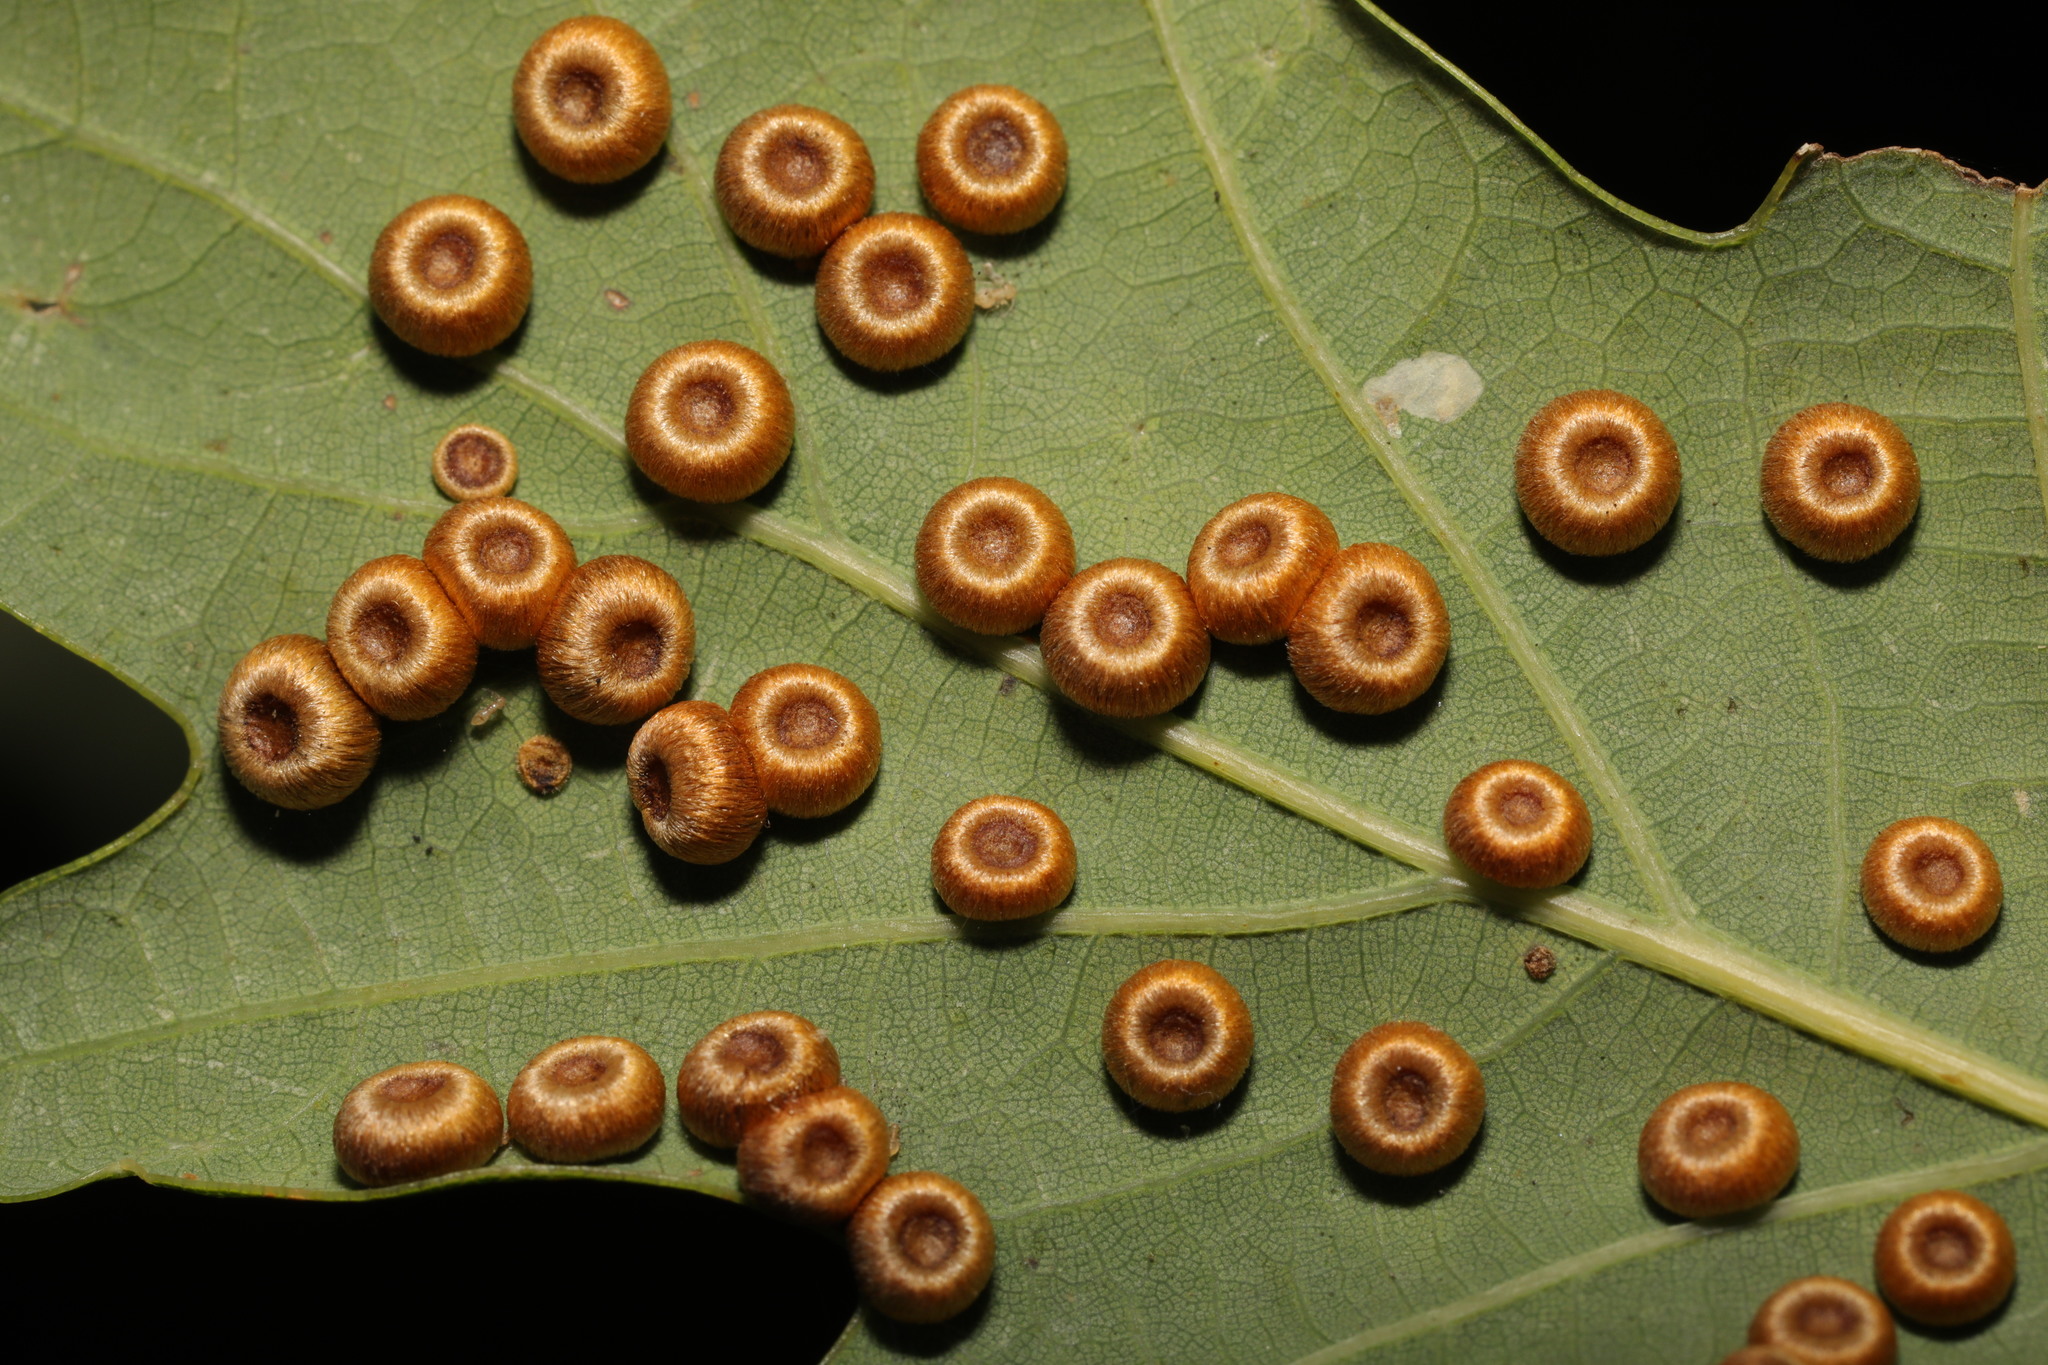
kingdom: Animalia
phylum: Arthropoda
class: Insecta
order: Hymenoptera
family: Cynipidae
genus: Neuroterus
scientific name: Neuroterus numismalis
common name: Silk-button spangle gall
